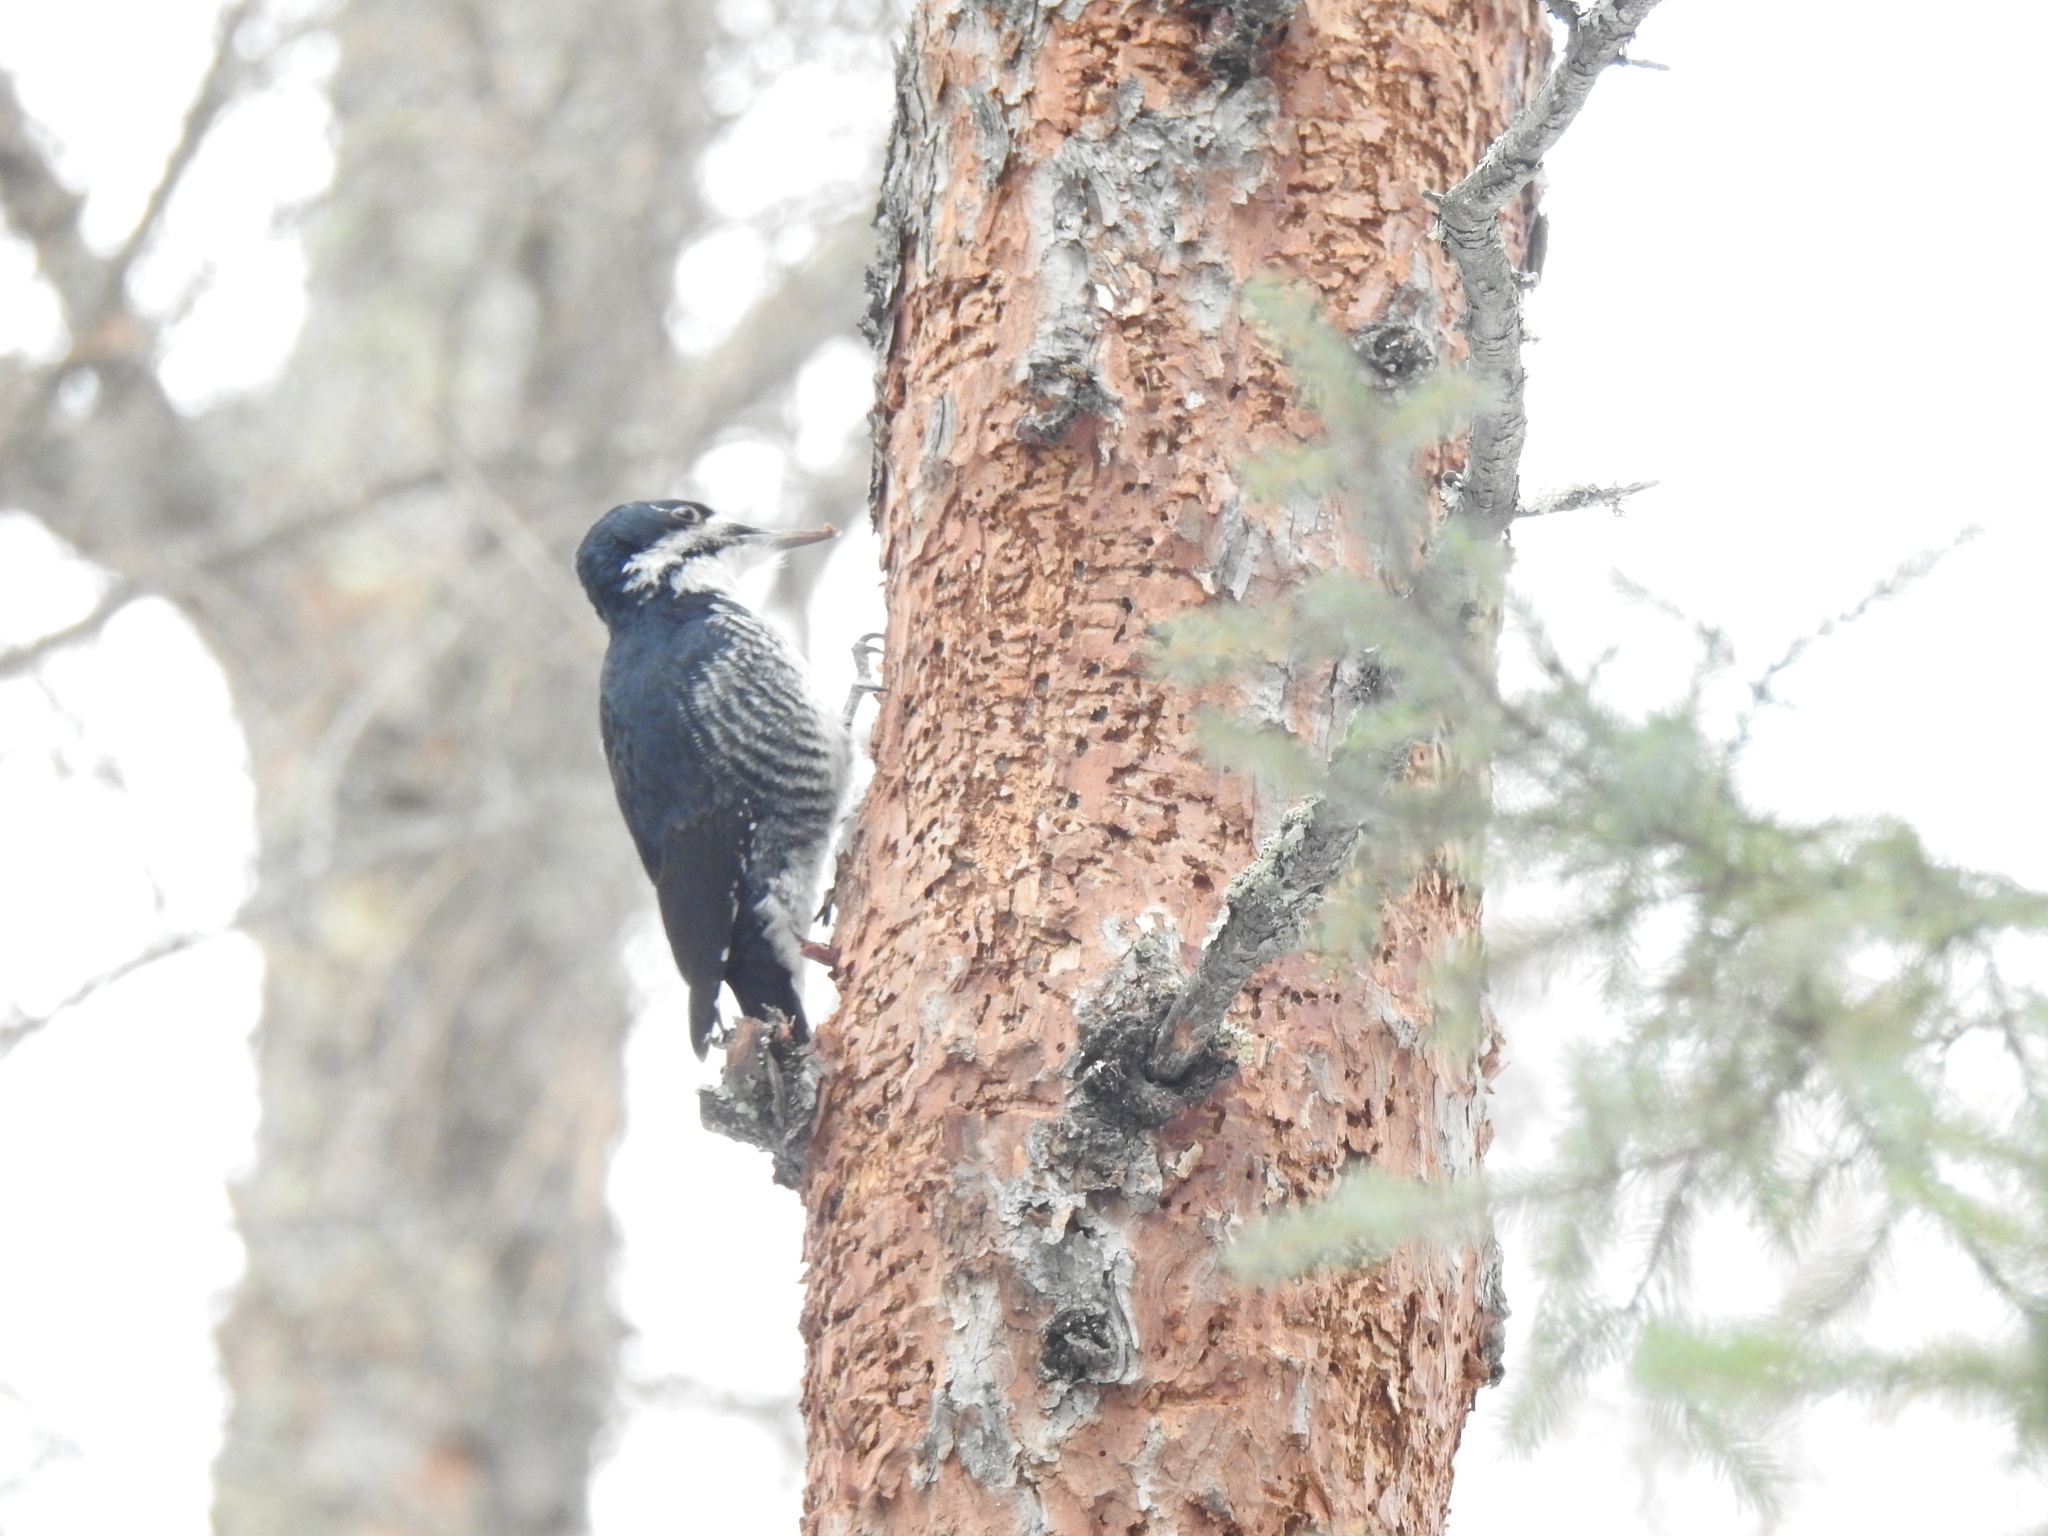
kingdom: Animalia
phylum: Chordata
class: Aves
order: Piciformes
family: Picidae
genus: Picoides
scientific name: Picoides arcticus
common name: Black-backed woodpecker
